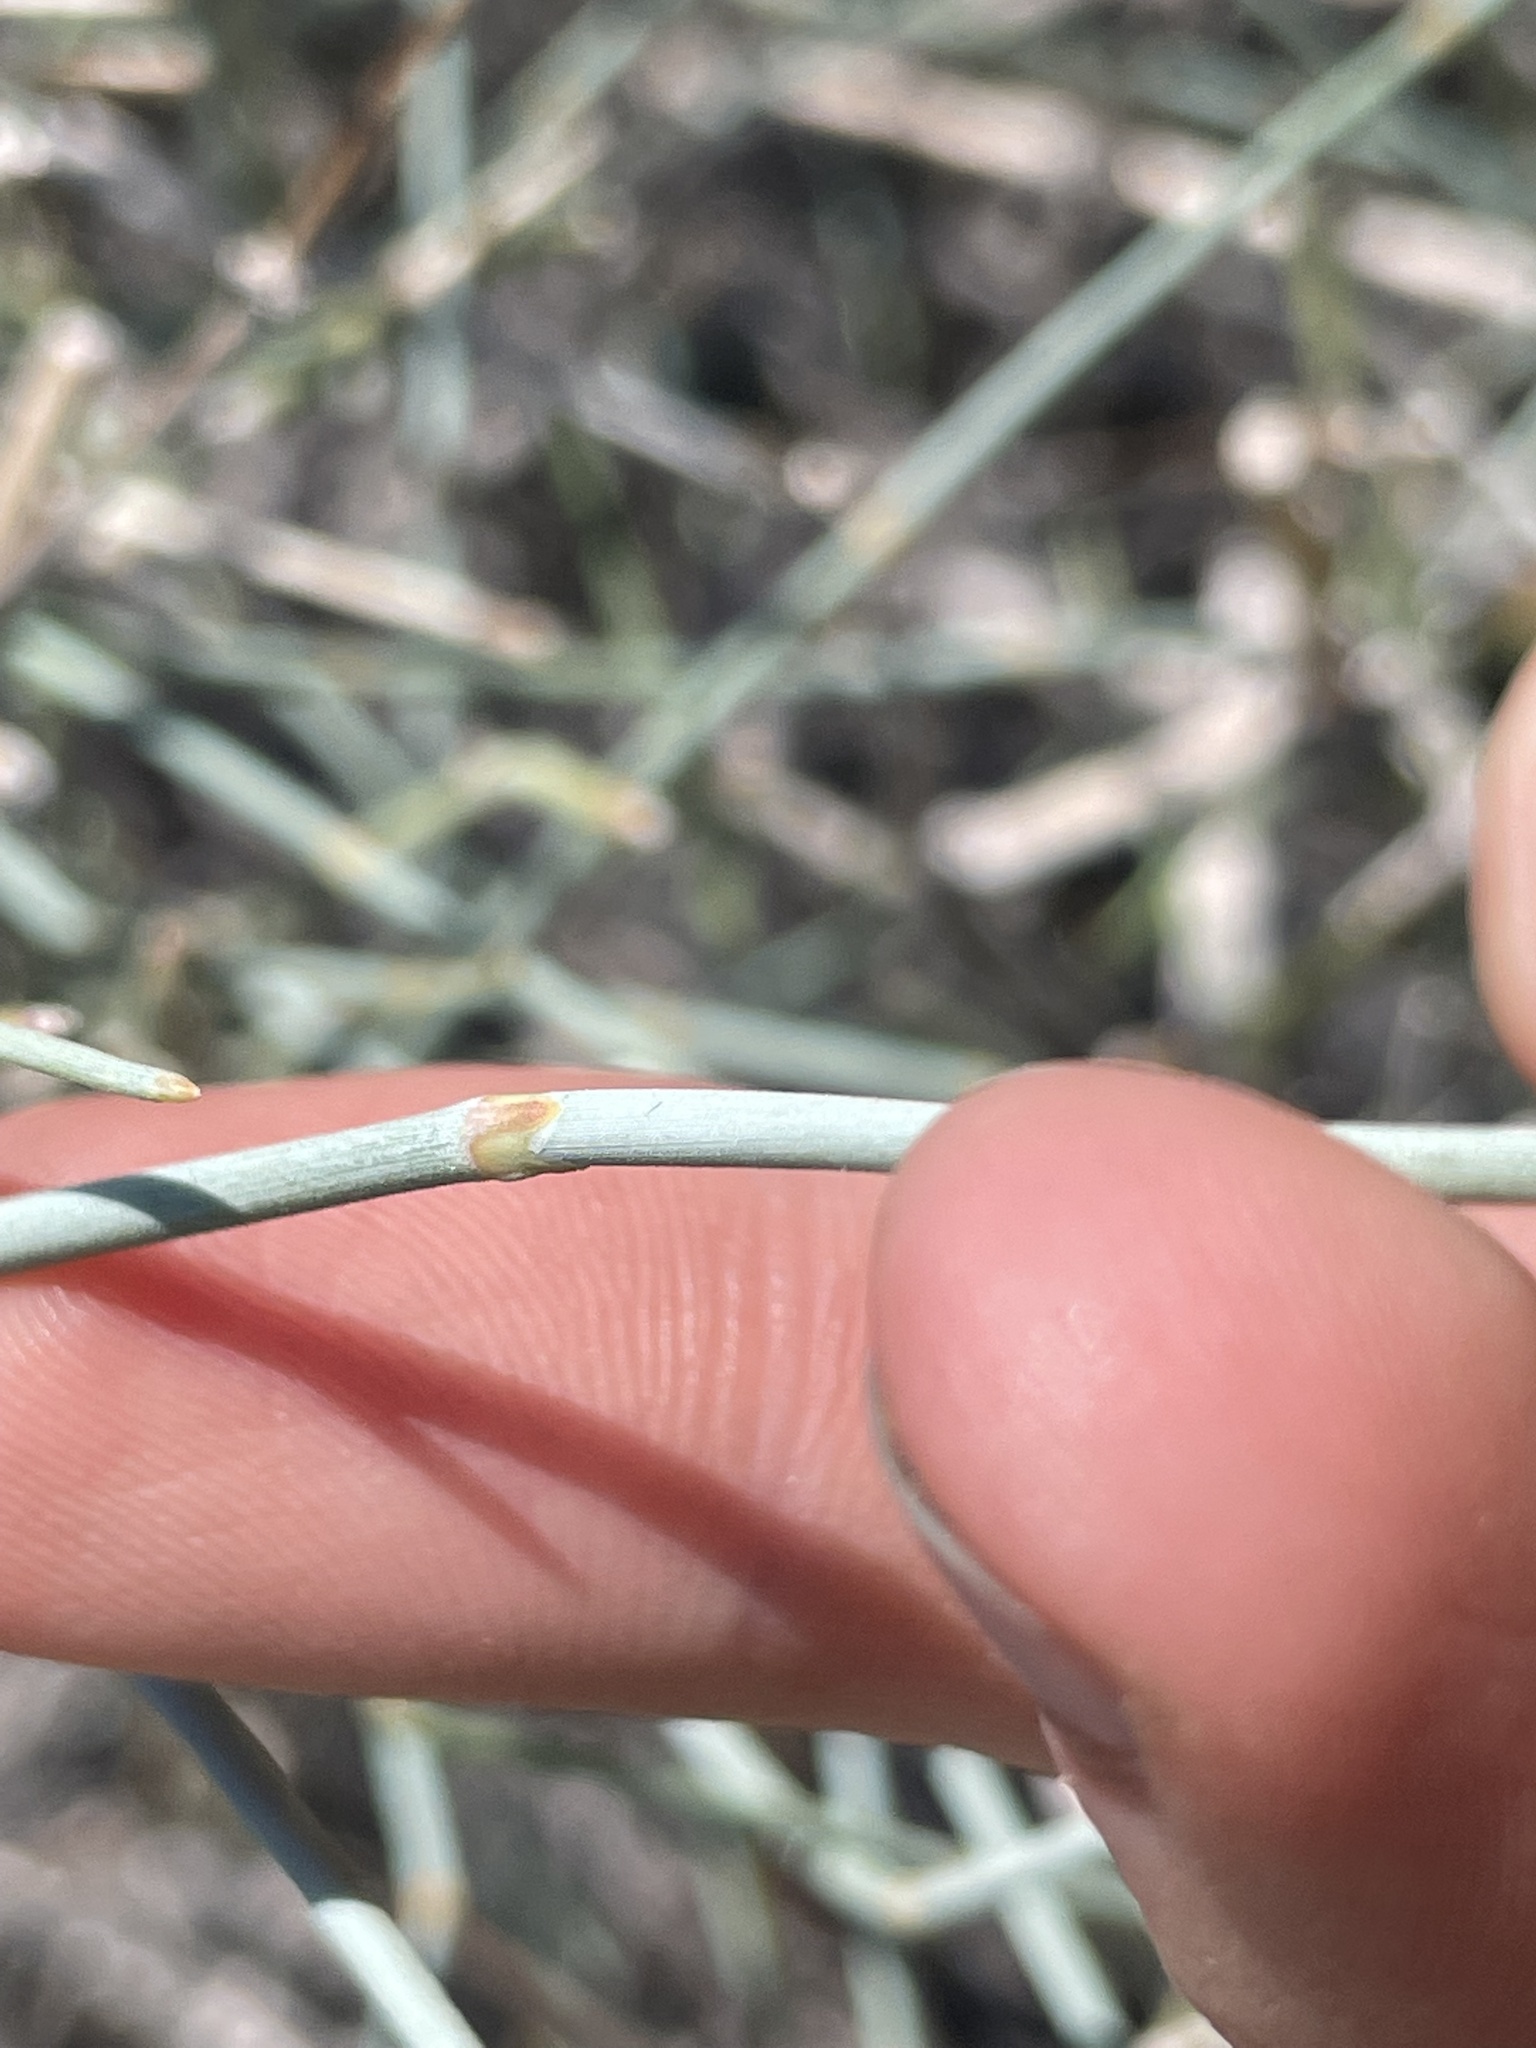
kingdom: Plantae
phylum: Tracheophyta
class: Gnetopsida
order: Ephedrales
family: Ephedraceae
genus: Ephedra
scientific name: Ephedra nevadensis
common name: Gray ephedra
